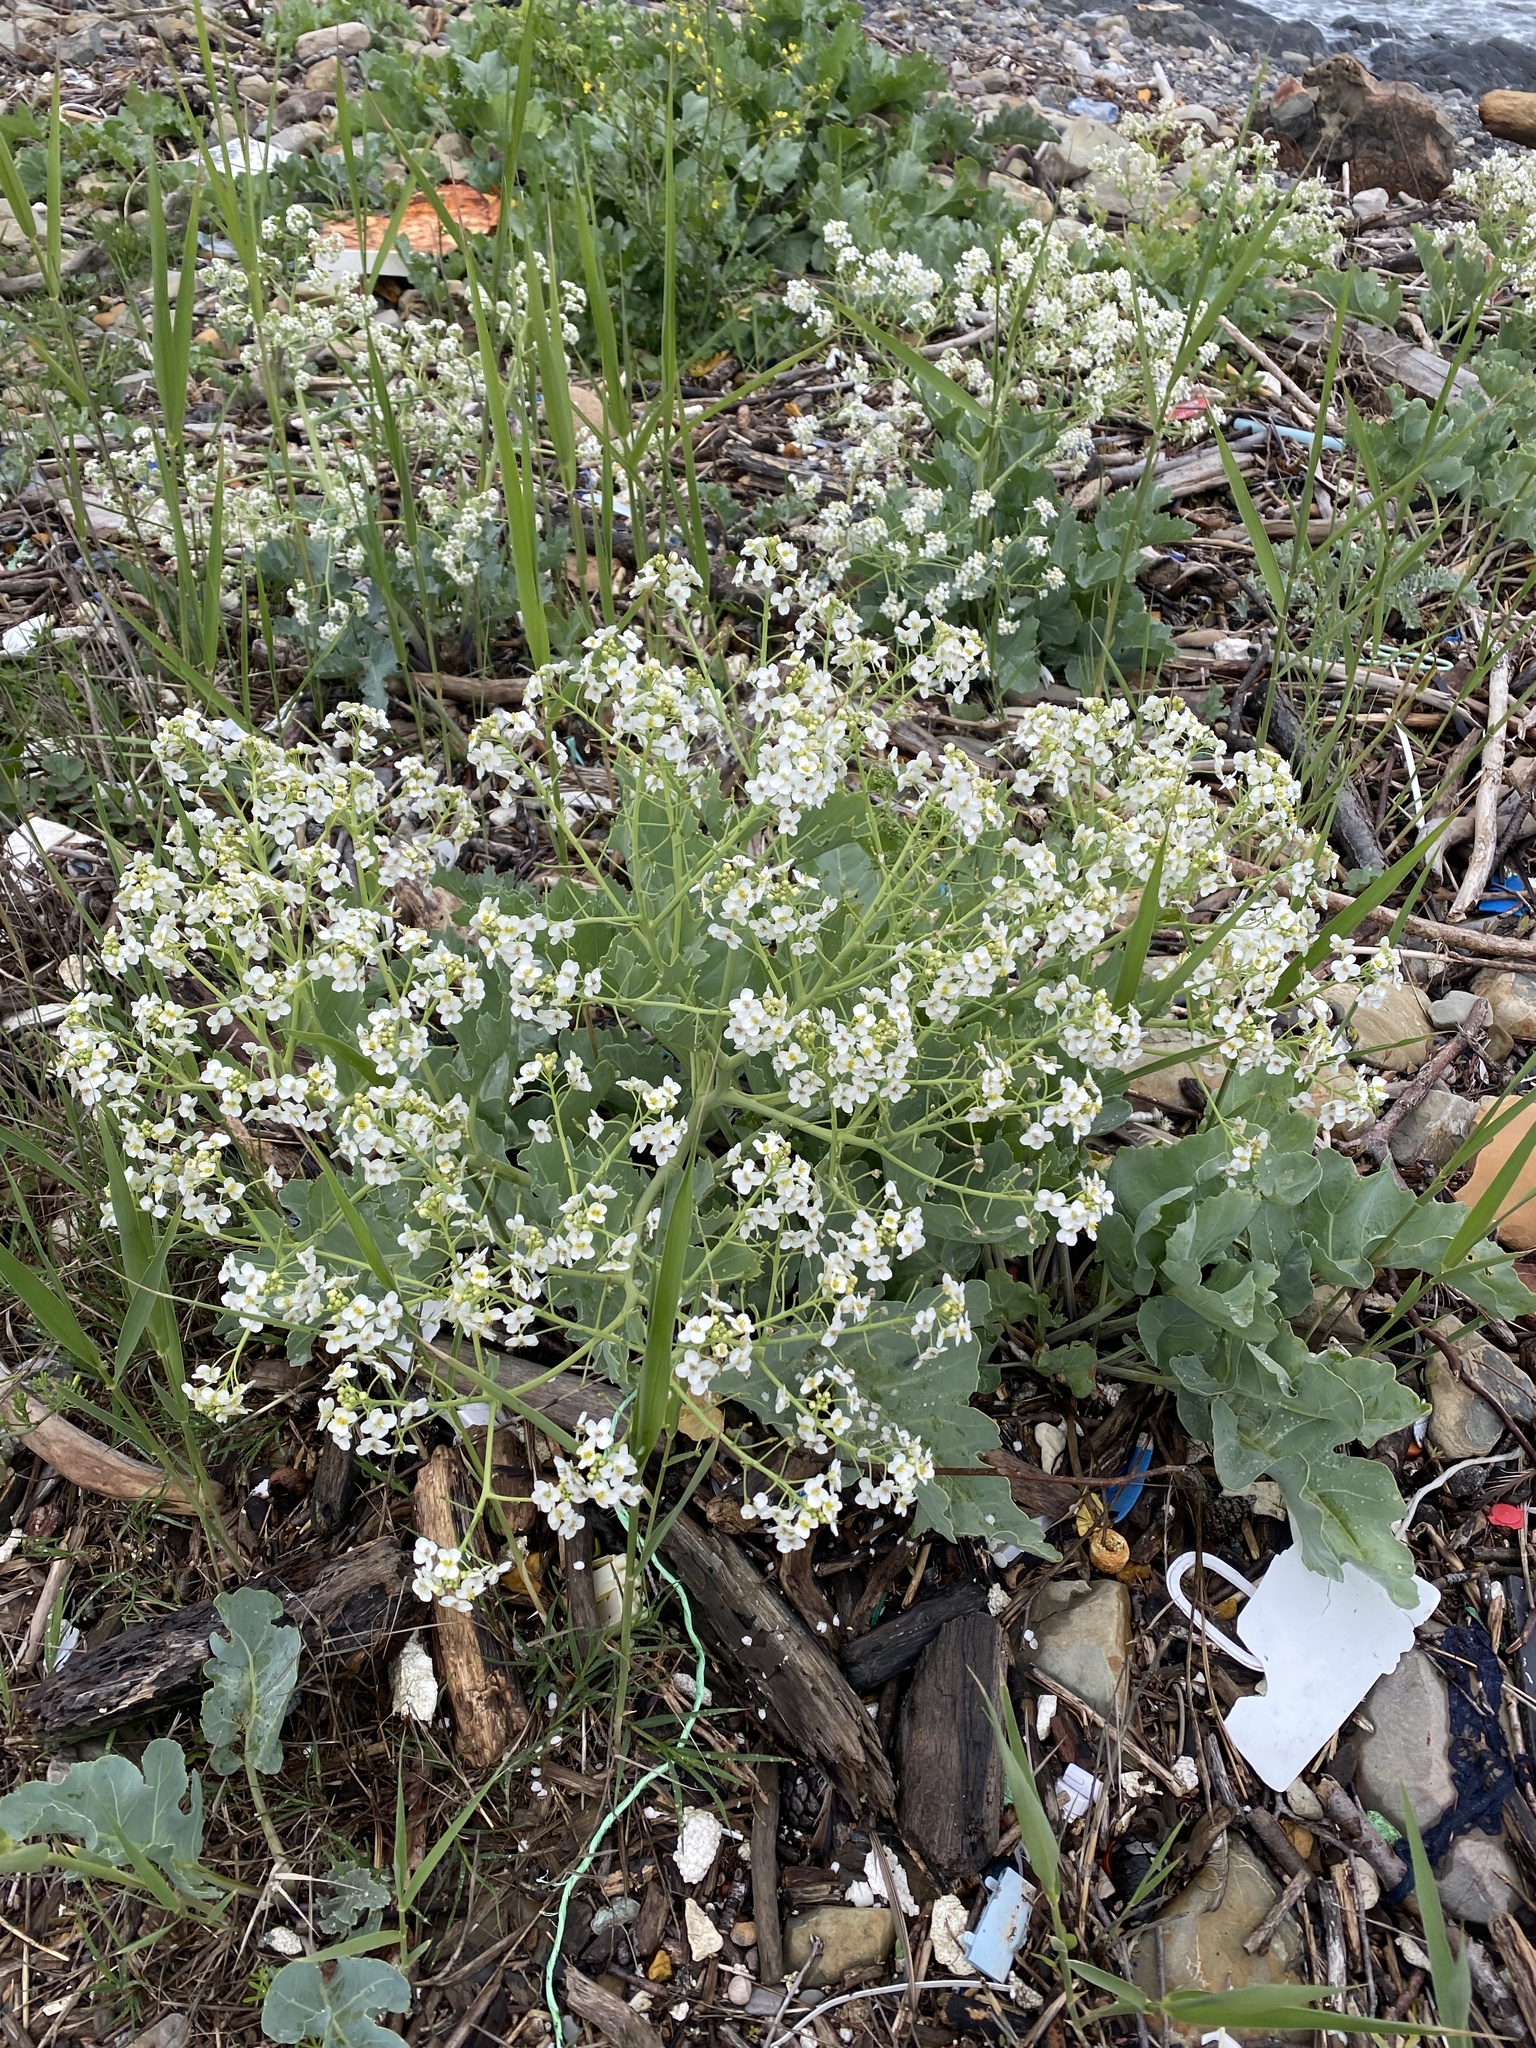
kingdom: Plantae
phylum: Tracheophyta
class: Magnoliopsida
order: Brassicales
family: Brassicaceae
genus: Crambe
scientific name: Crambe maritima
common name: Sea-kale
